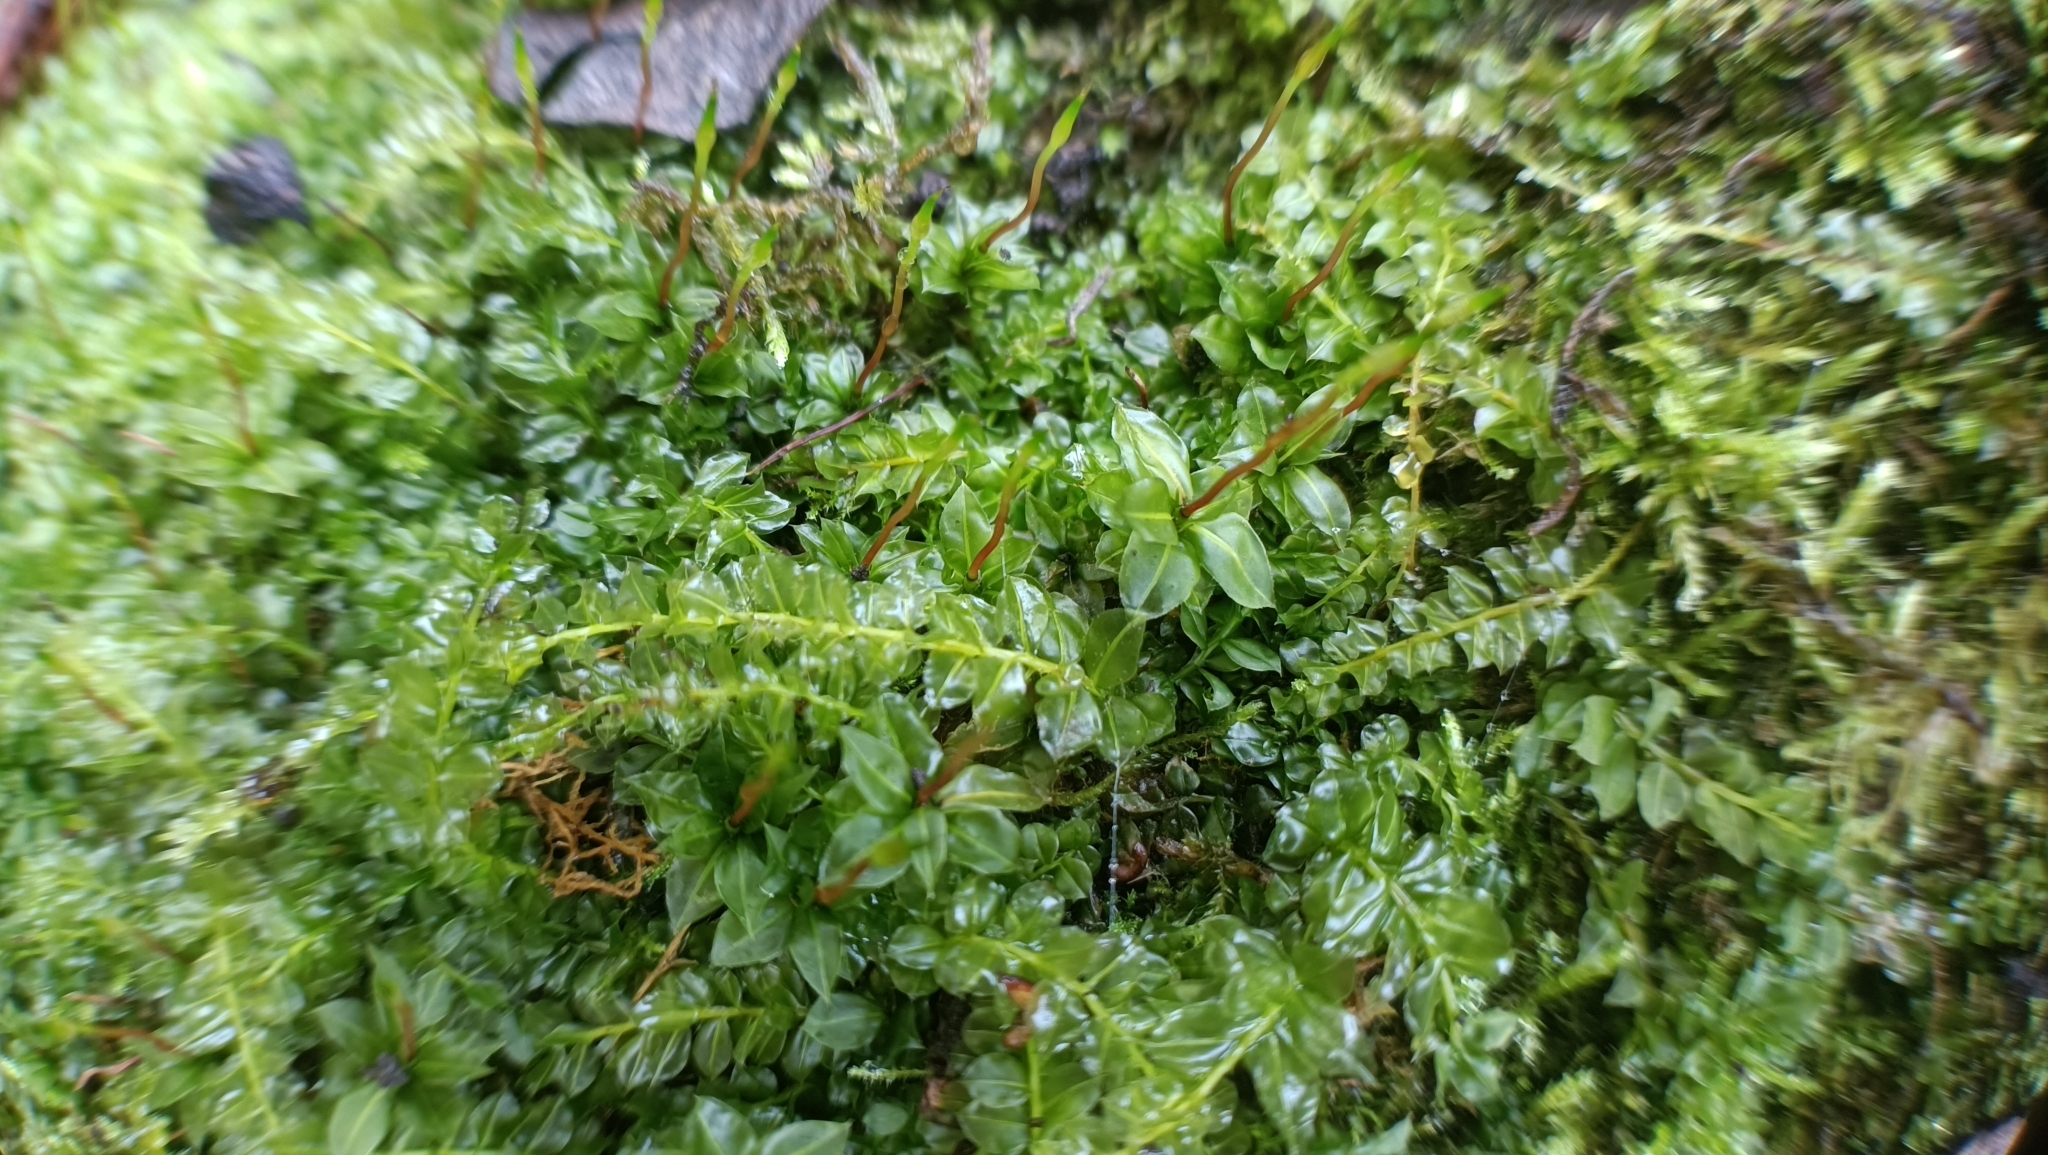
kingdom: Plantae
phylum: Bryophyta
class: Bryopsida
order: Bryales
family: Mniaceae
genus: Plagiomnium
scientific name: Plagiomnium cuspidatum
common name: Woodsy leafy moss
